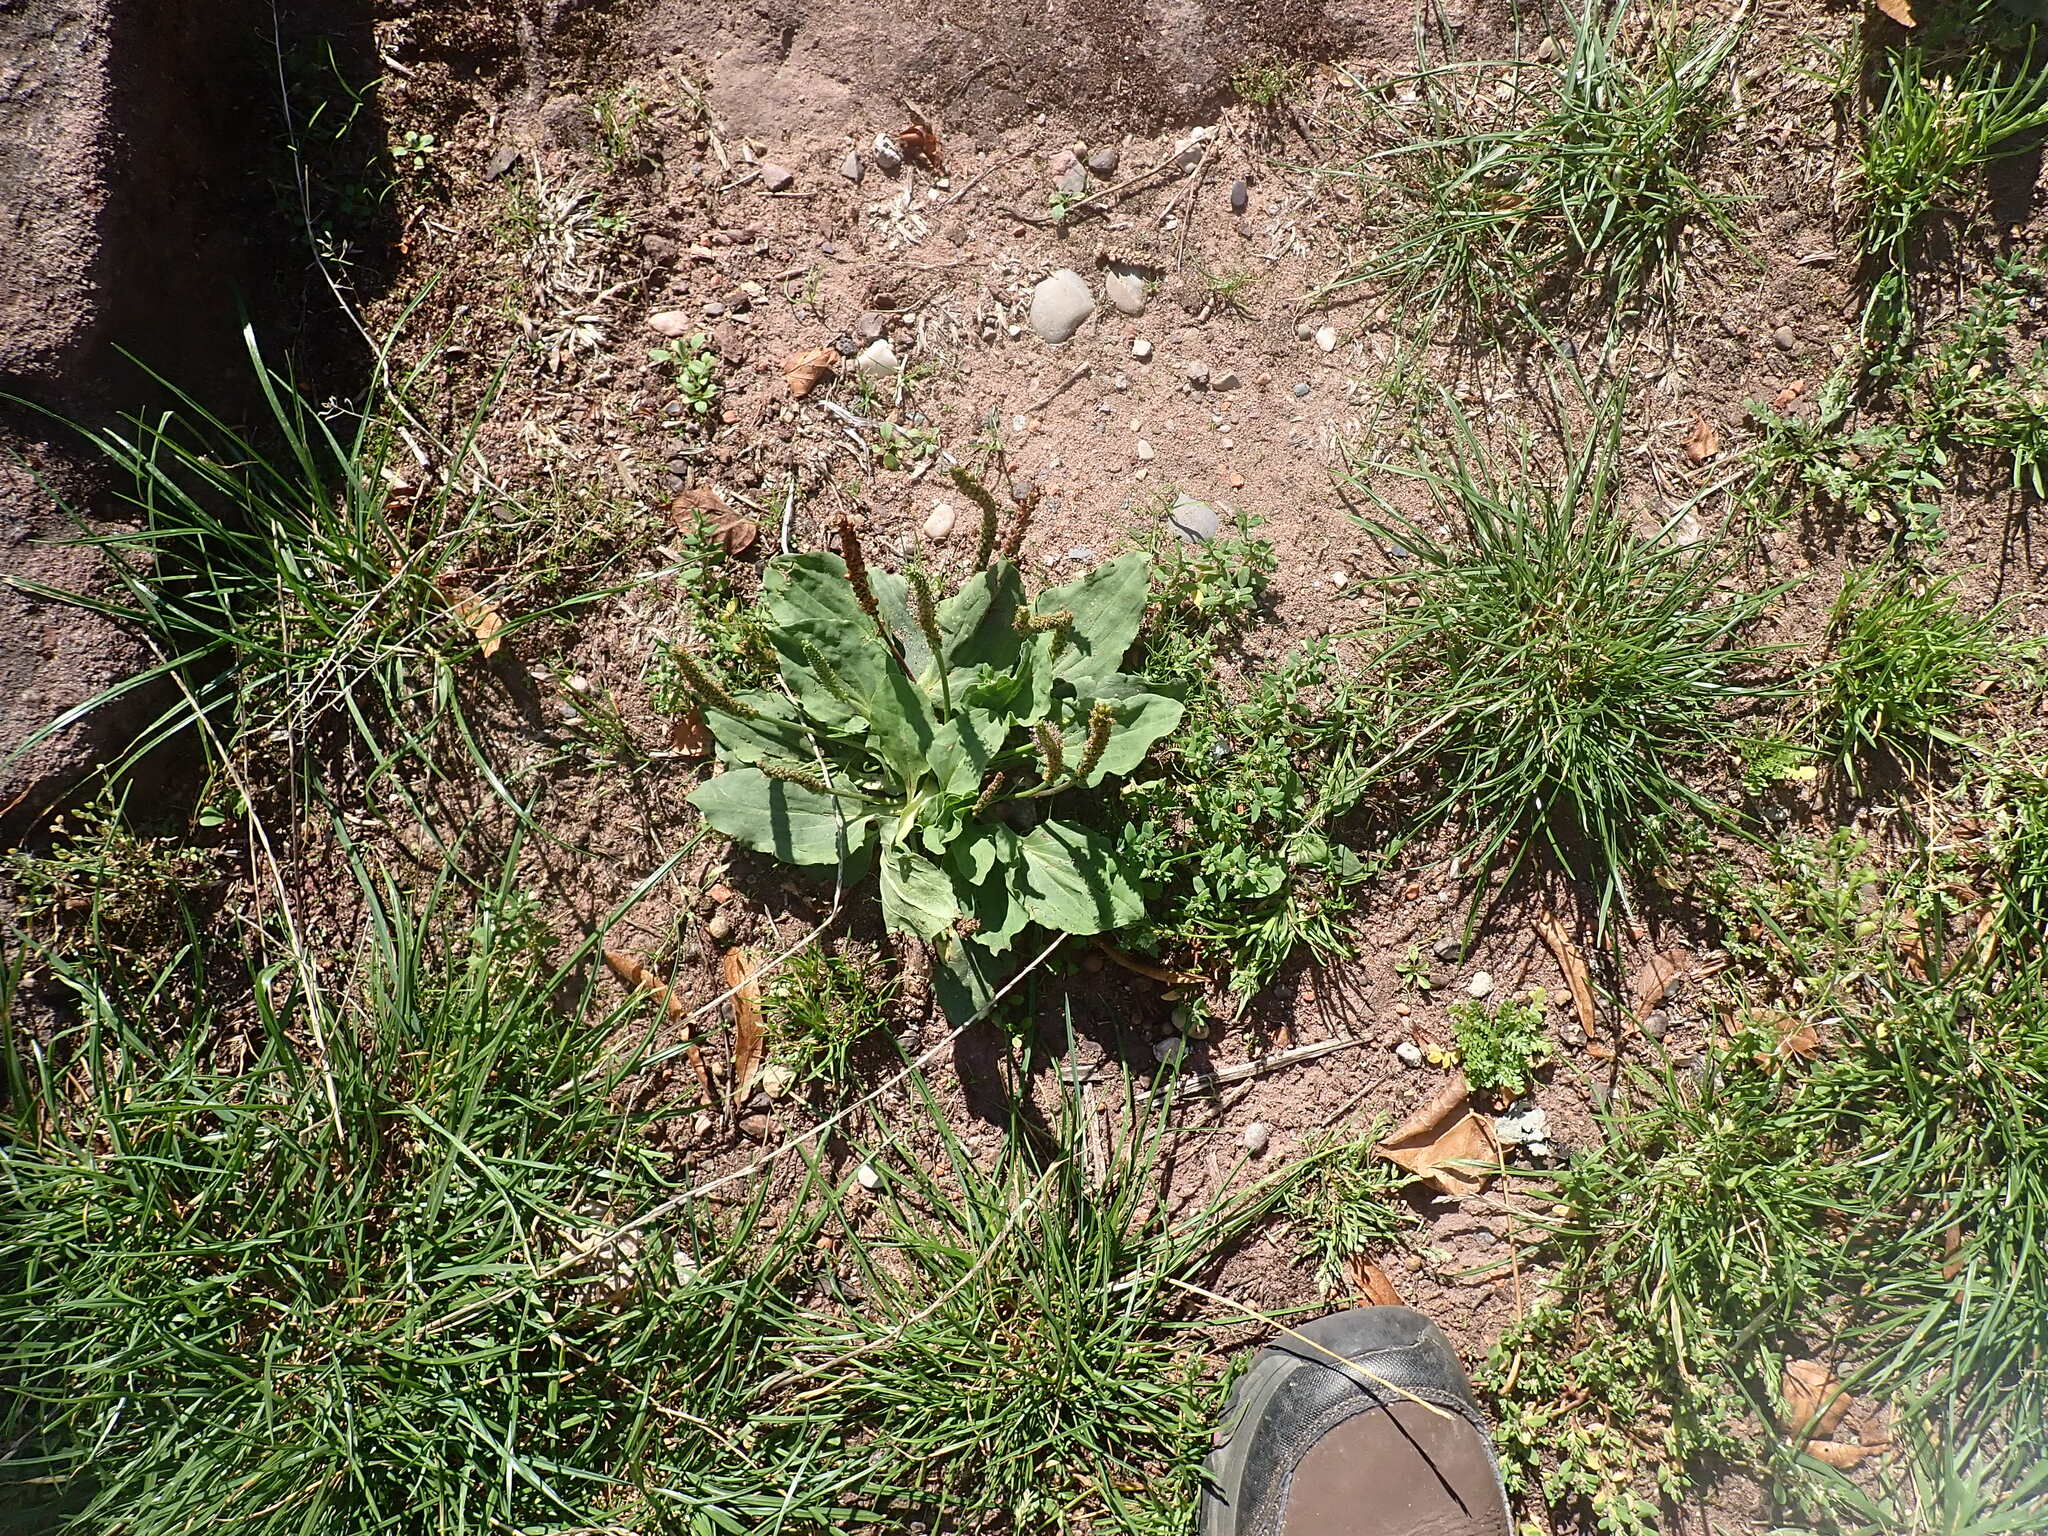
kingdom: Plantae
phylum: Tracheophyta
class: Magnoliopsida
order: Lamiales
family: Plantaginaceae
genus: Plantago
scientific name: Plantago major
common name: Common plantain
